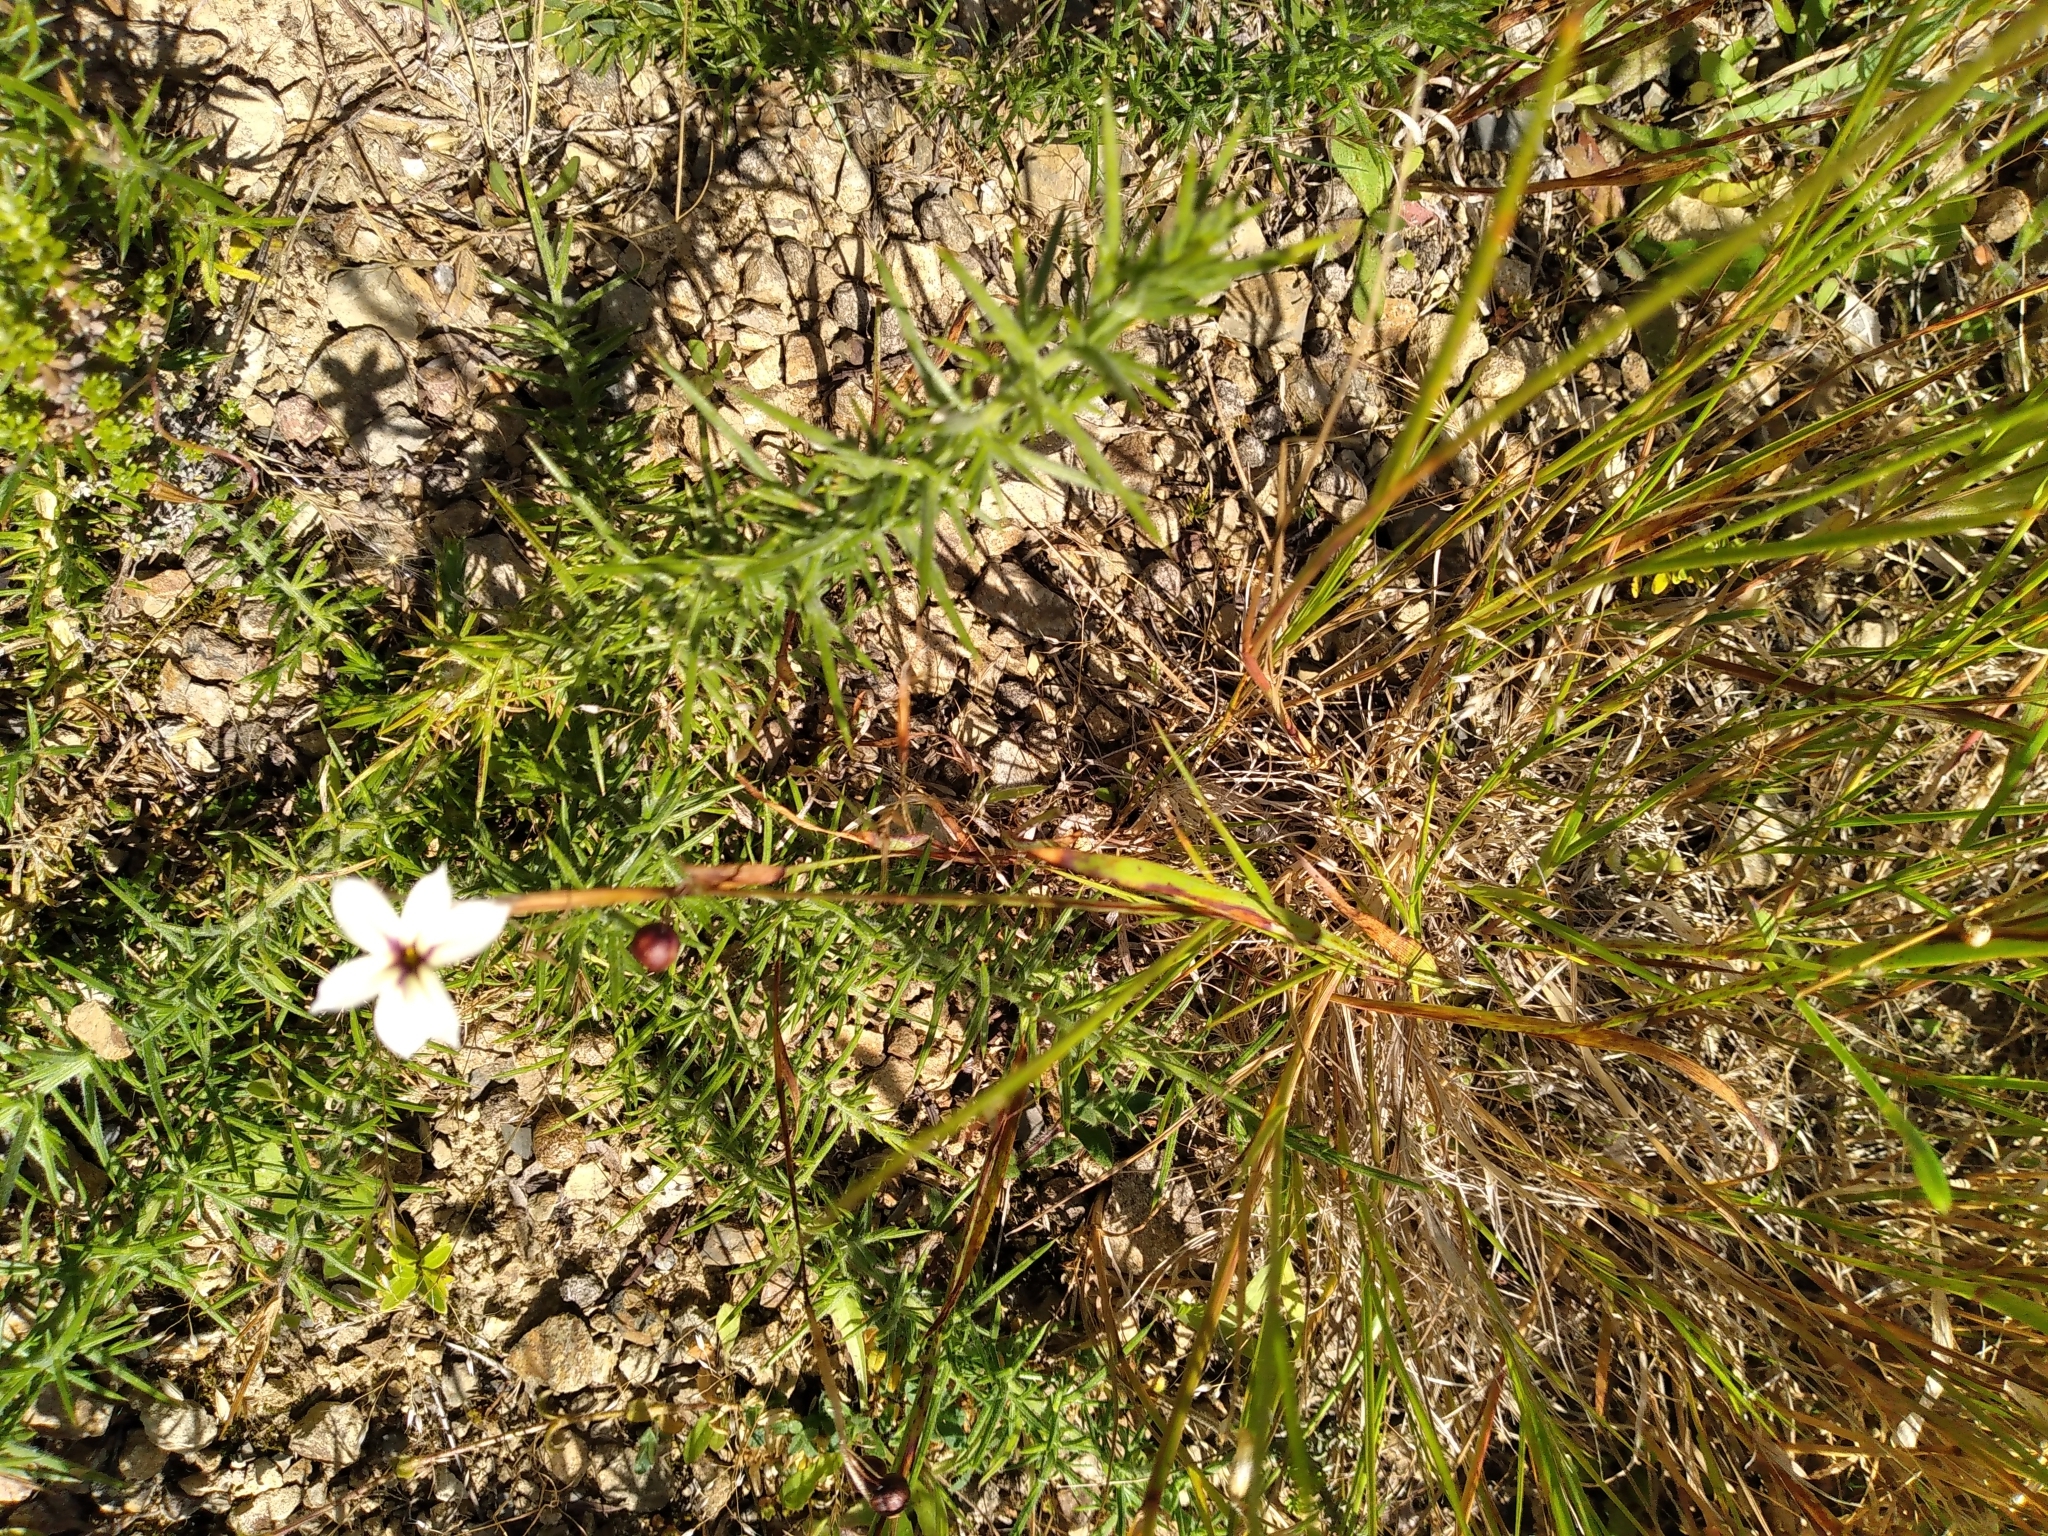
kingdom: Plantae
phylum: Tracheophyta
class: Liliopsida
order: Asparagales
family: Iridaceae
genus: Sisyrinchium
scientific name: Sisyrinchium micranthum
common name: Bermuda pigroot
